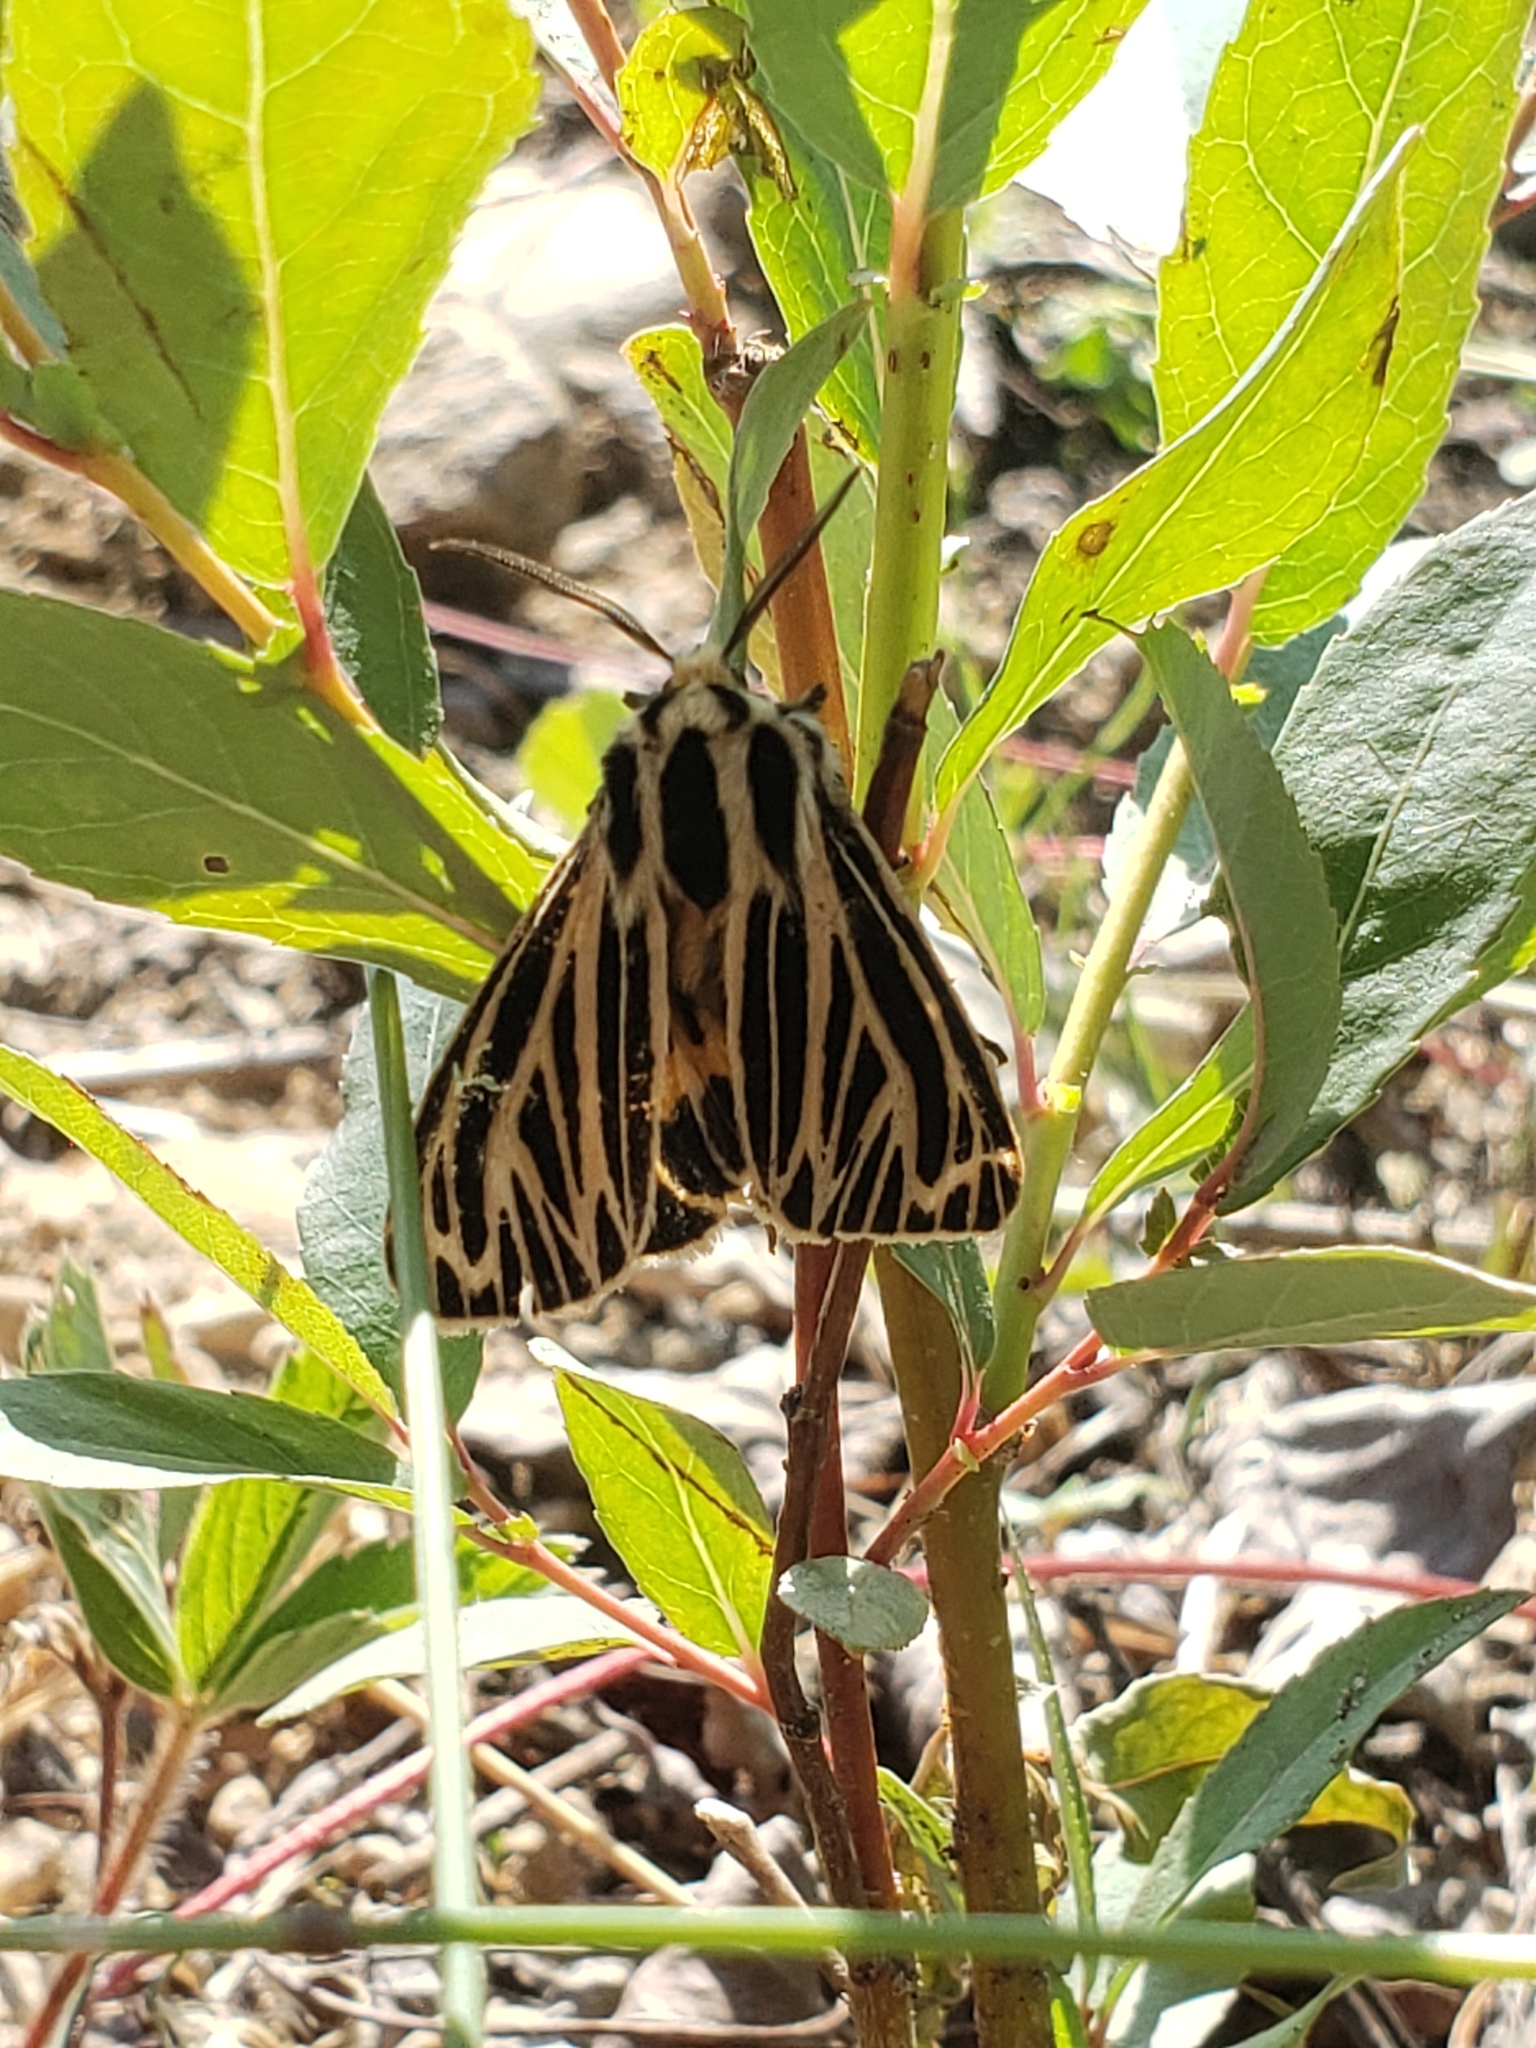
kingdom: Animalia
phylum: Arthropoda
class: Insecta
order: Lepidoptera
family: Erebidae
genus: Grammia
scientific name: Grammia virguncula
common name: Little tiger moth
